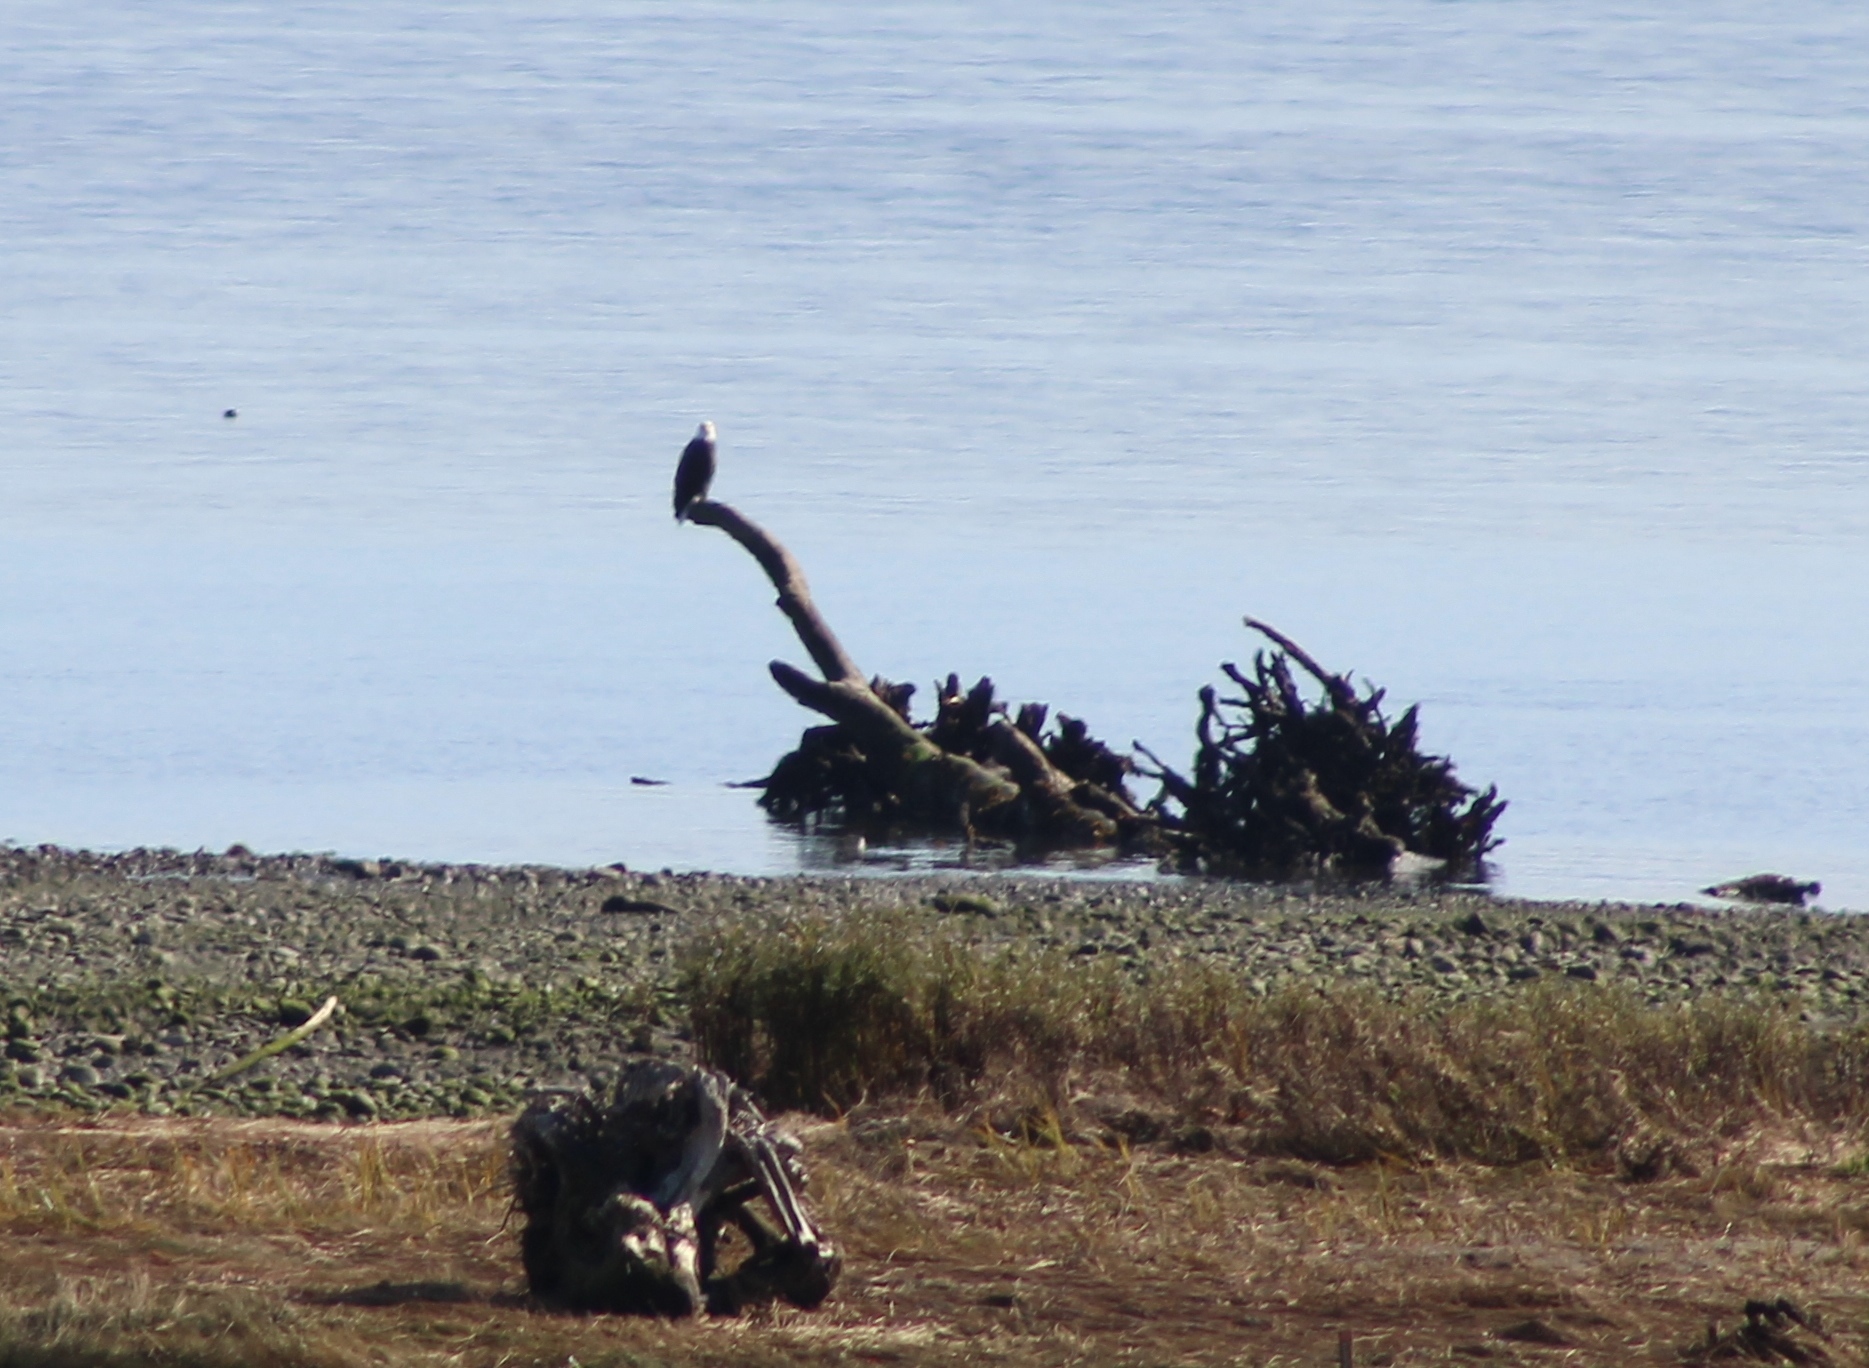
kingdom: Animalia
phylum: Chordata
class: Aves
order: Accipitriformes
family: Accipitridae
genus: Haliaeetus
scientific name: Haliaeetus leucocephalus
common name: Bald eagle
